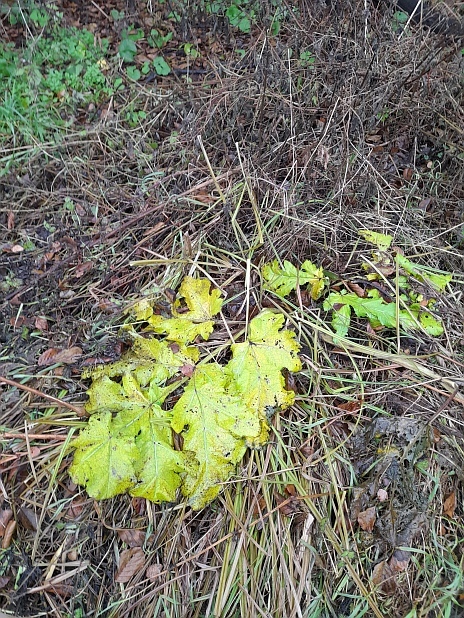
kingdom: Plantae
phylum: Tracheophyta
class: Magnoliopsida
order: Apiales
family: Apiaceae
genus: Heracleum
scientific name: Heracleum sosnowskyi
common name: Sosnowsky's hogweed
